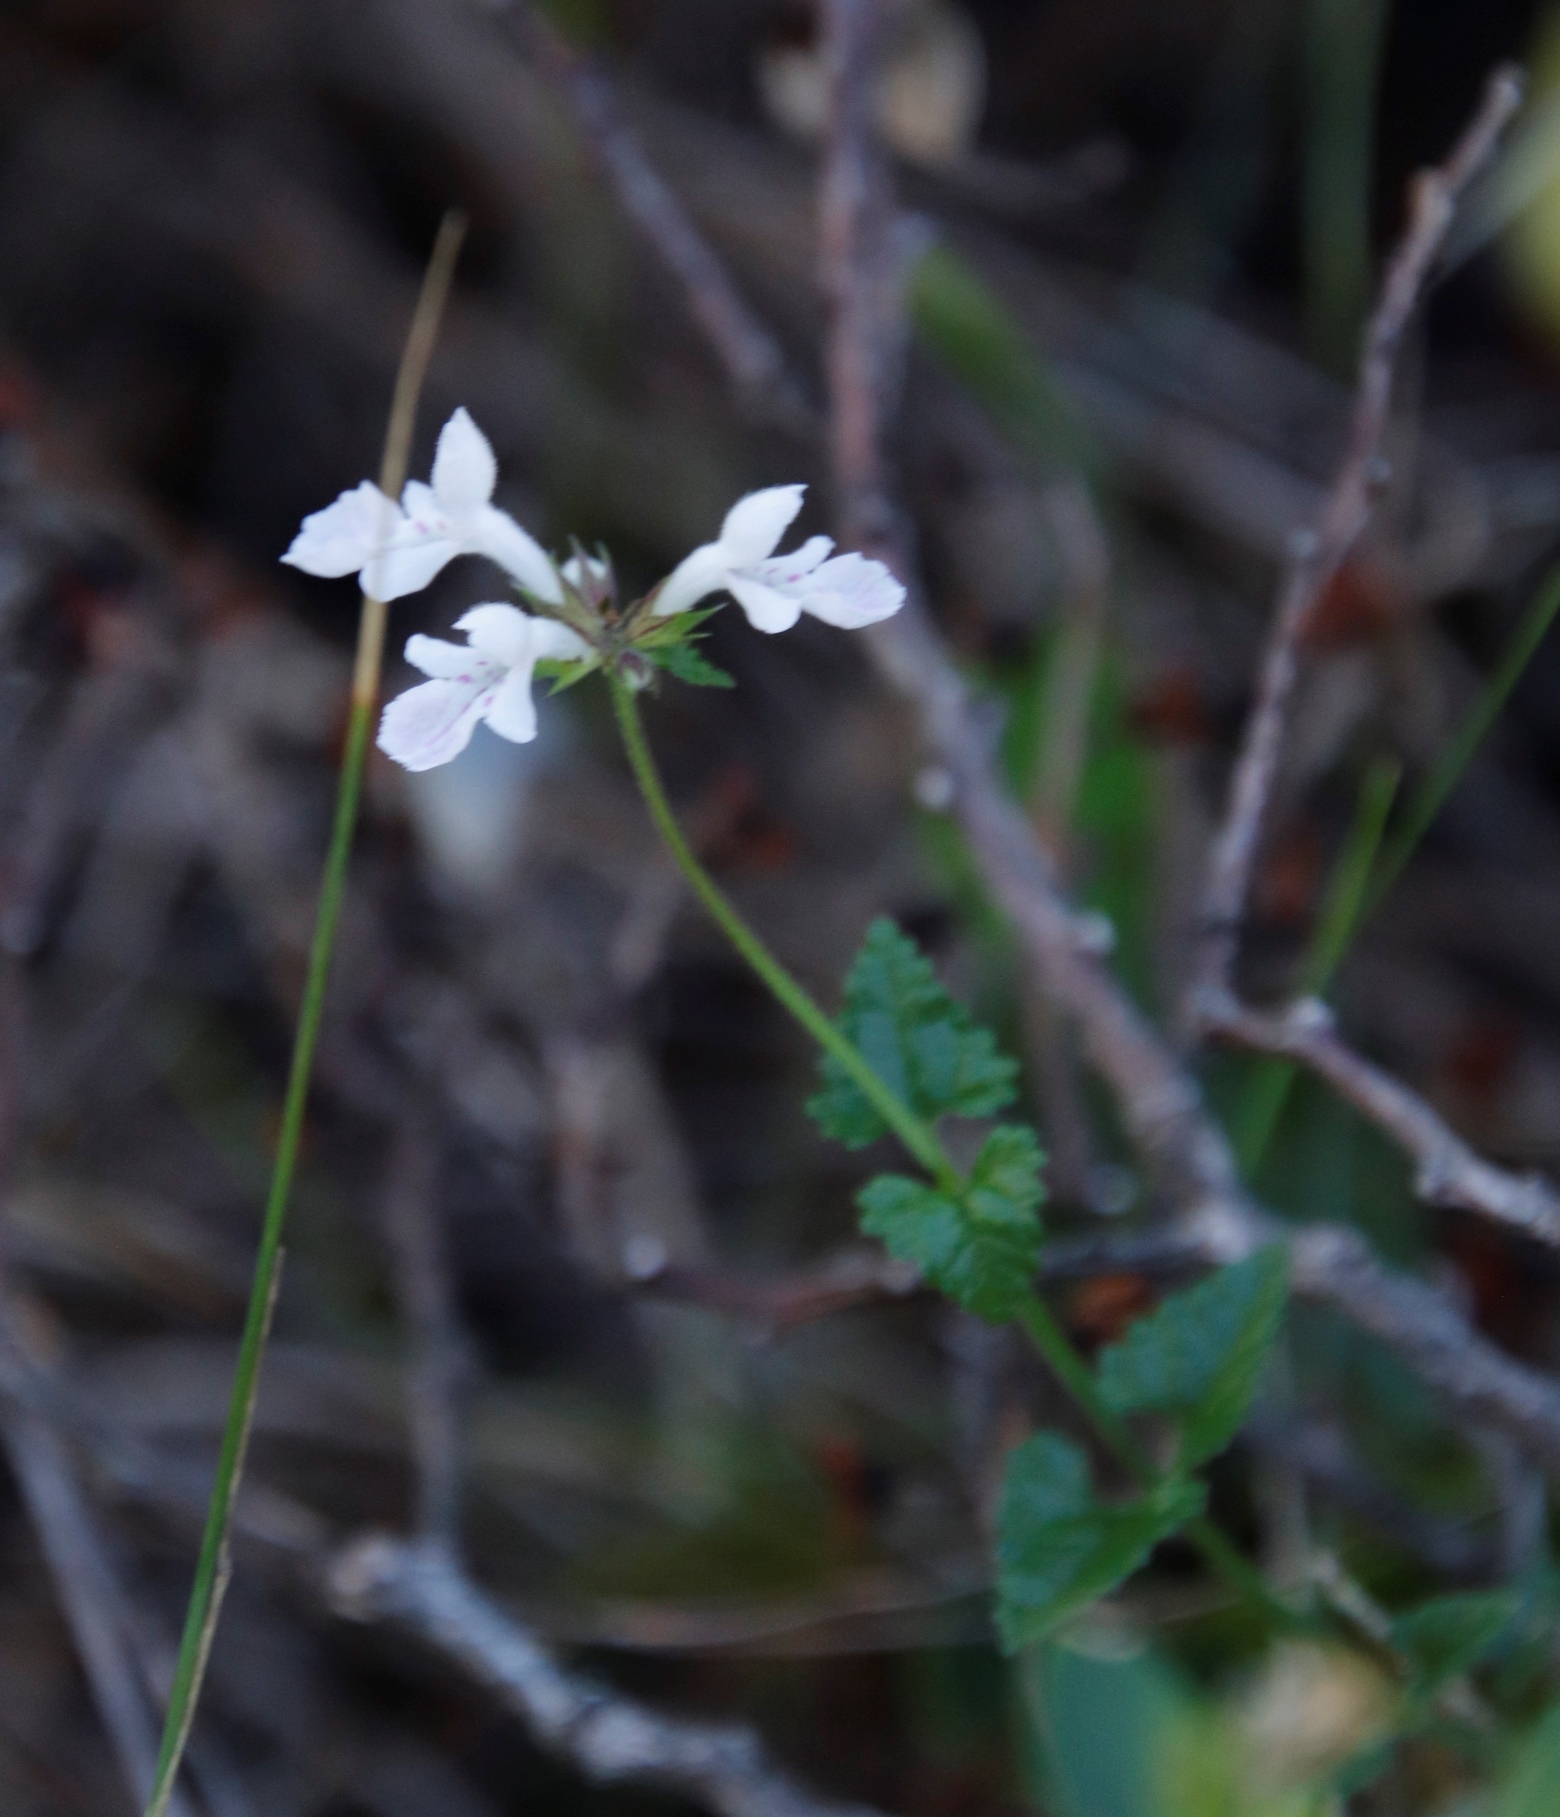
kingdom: Plantae
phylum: Tracheophyta
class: Magnoliopsida
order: Lamiales
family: Lamiaceae
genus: Stachys
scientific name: Stachys aethiopica
